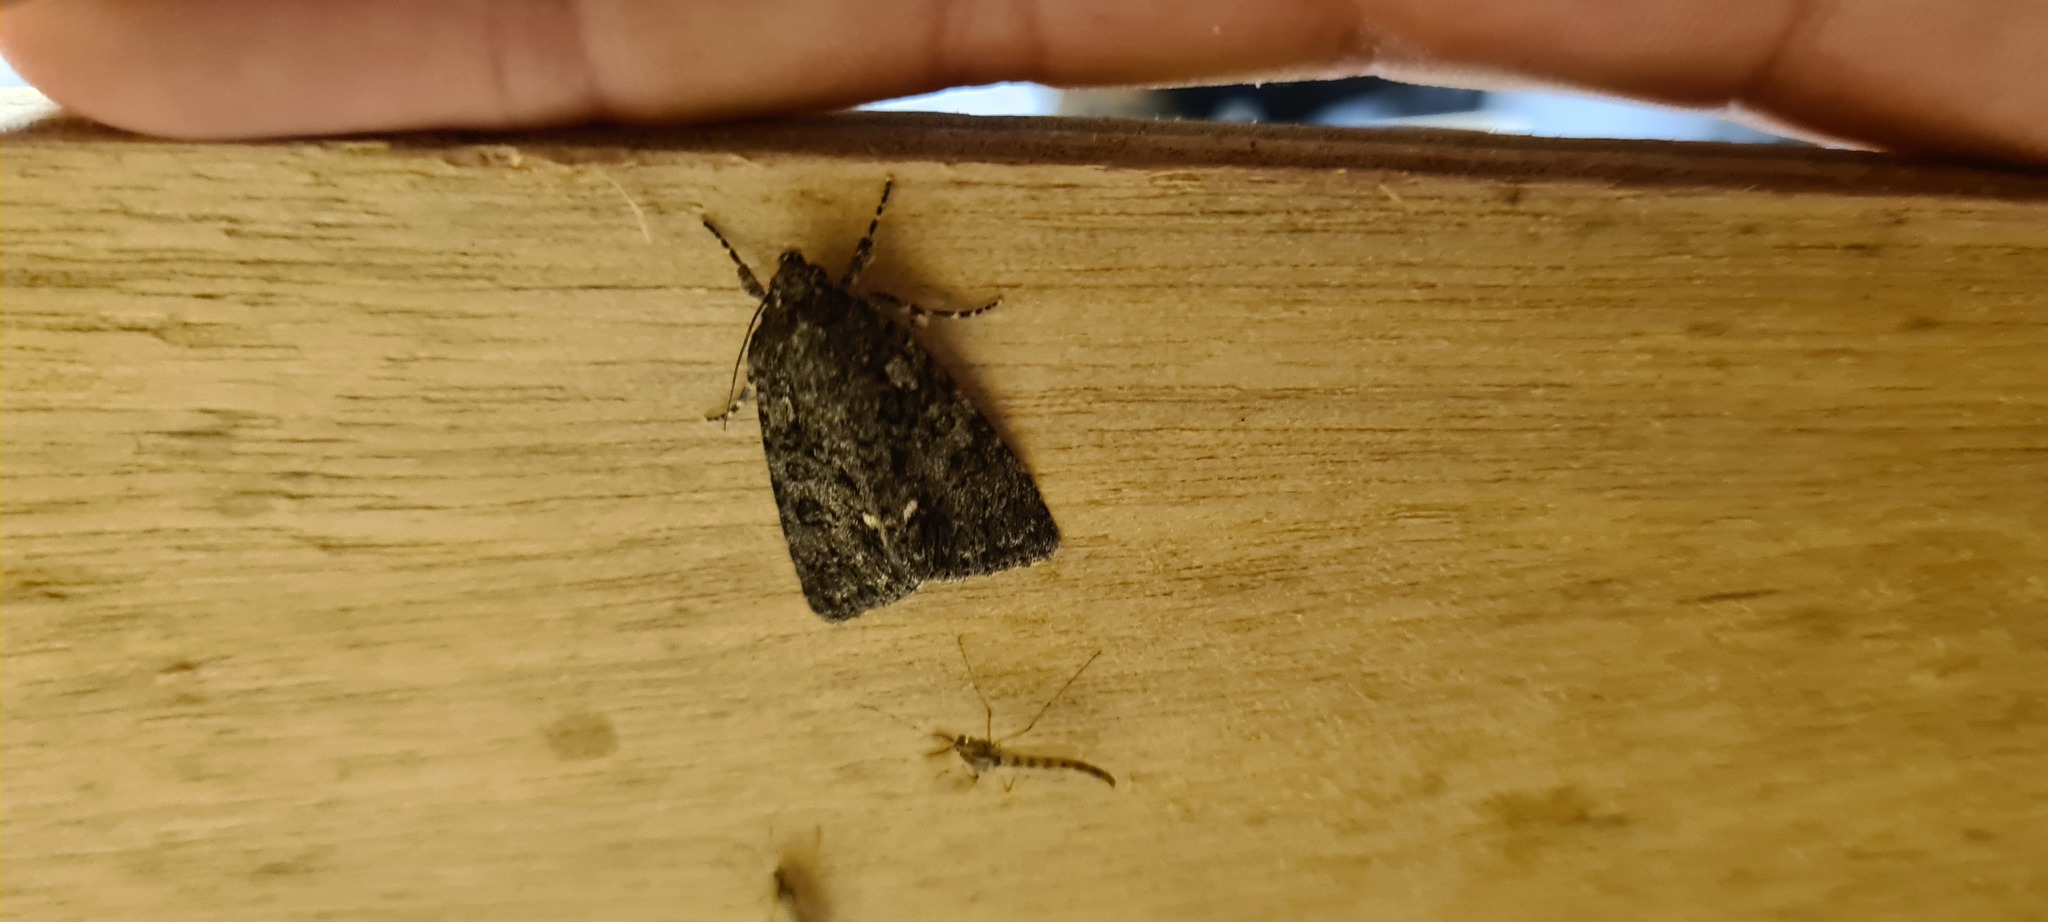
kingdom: Animalia
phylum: Arthropoda
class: Insecta
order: Lepidoptera
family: Noctuidae
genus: Acronicta
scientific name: Acronicta rumicis
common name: Knot grass
